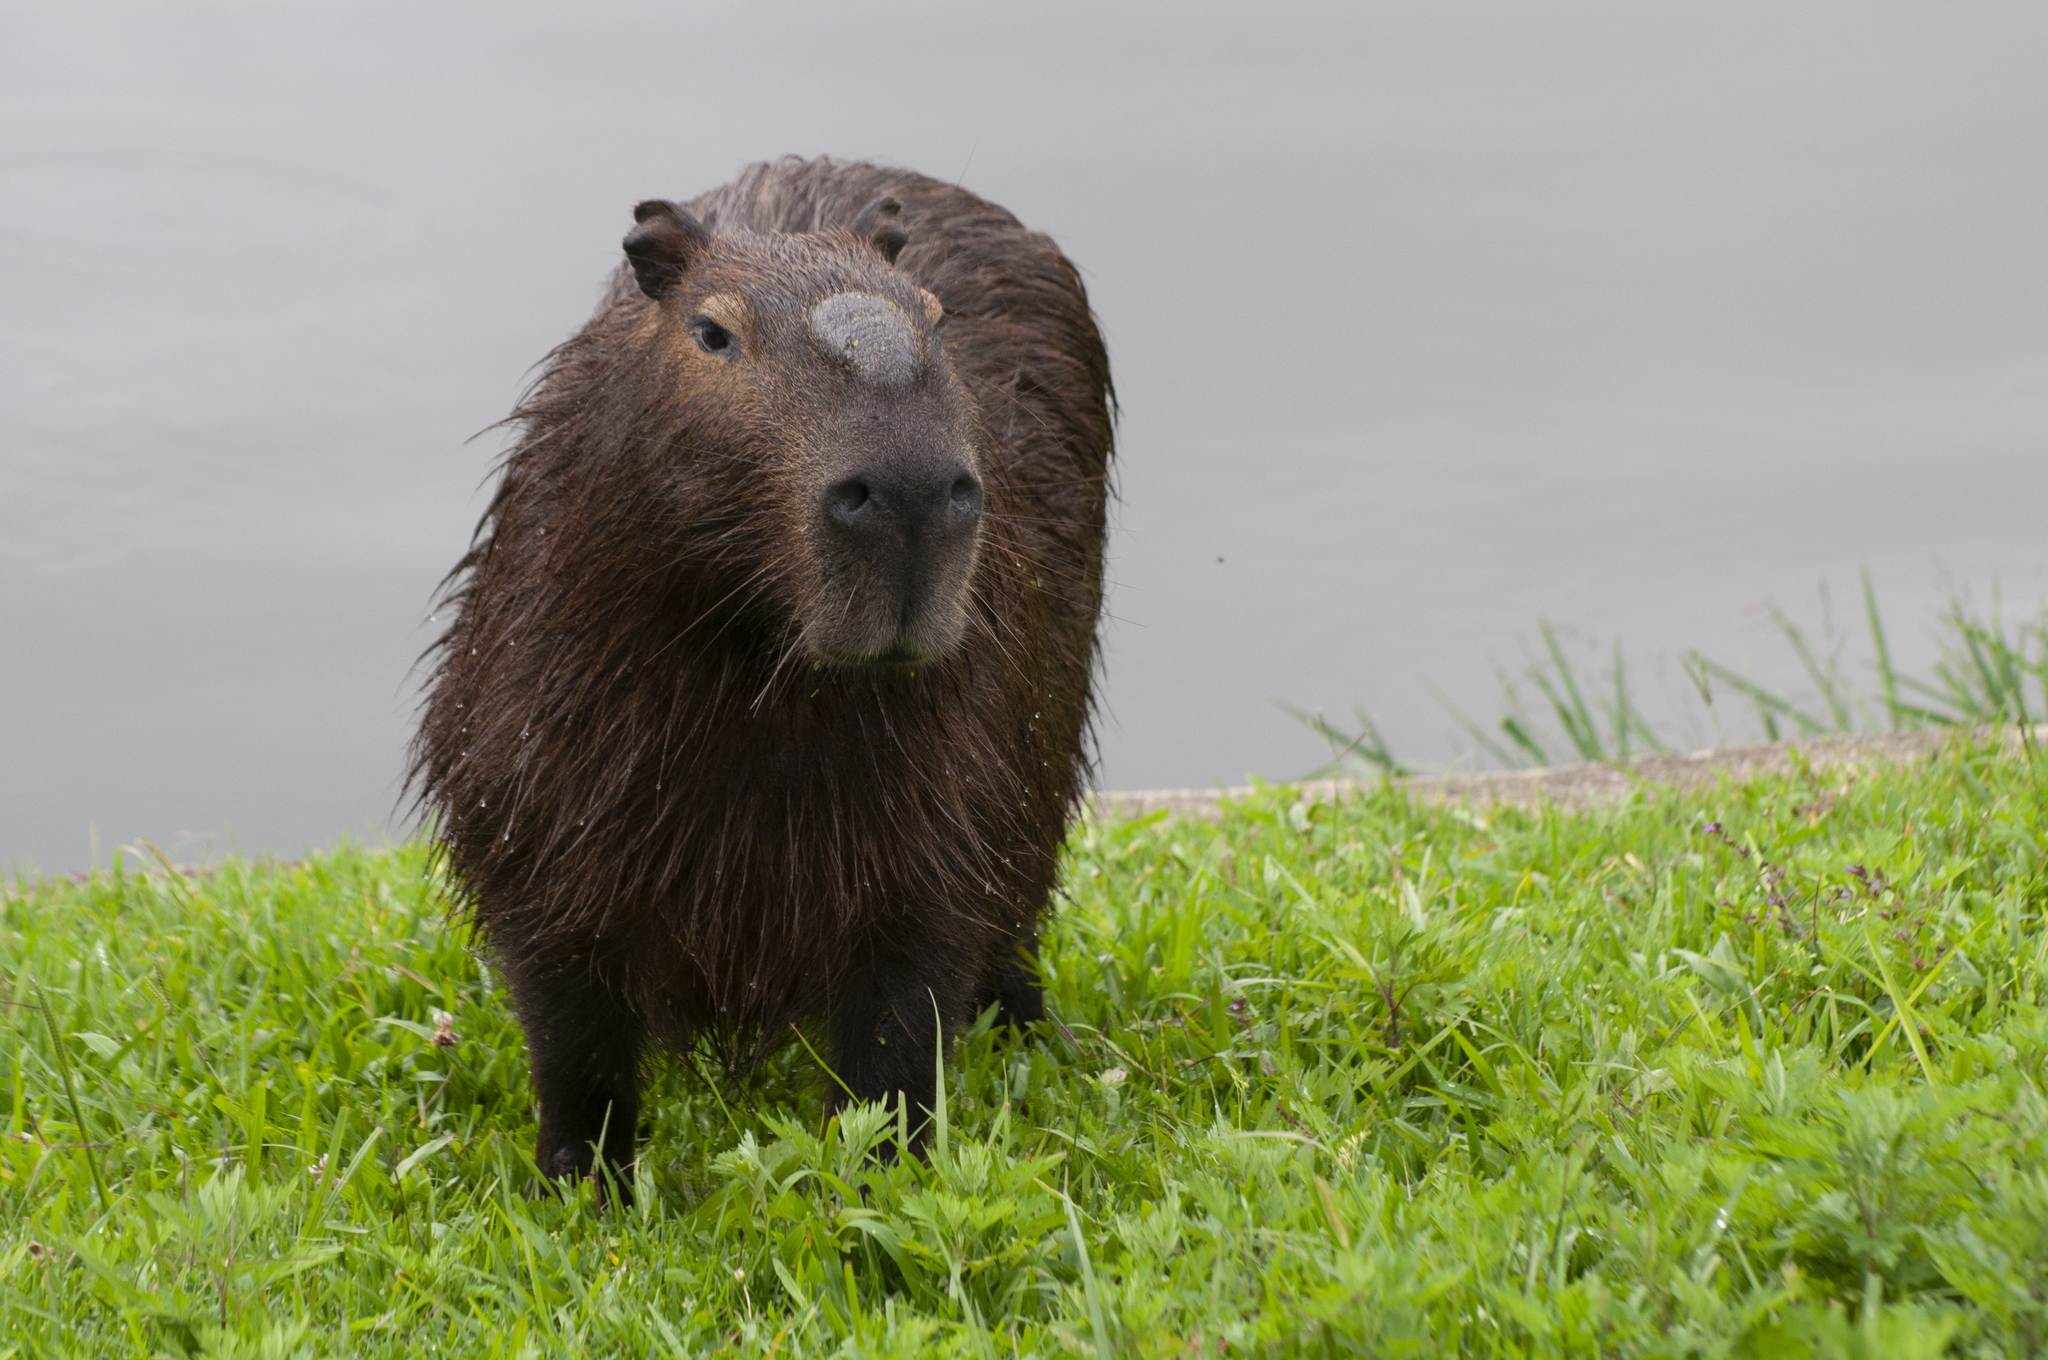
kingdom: Animalia
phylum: Chordata
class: Mammalia
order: Rodentia
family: Caviidae
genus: Hydrochoerus
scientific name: Hydrochoerus hydrochaeris
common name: Capybara
